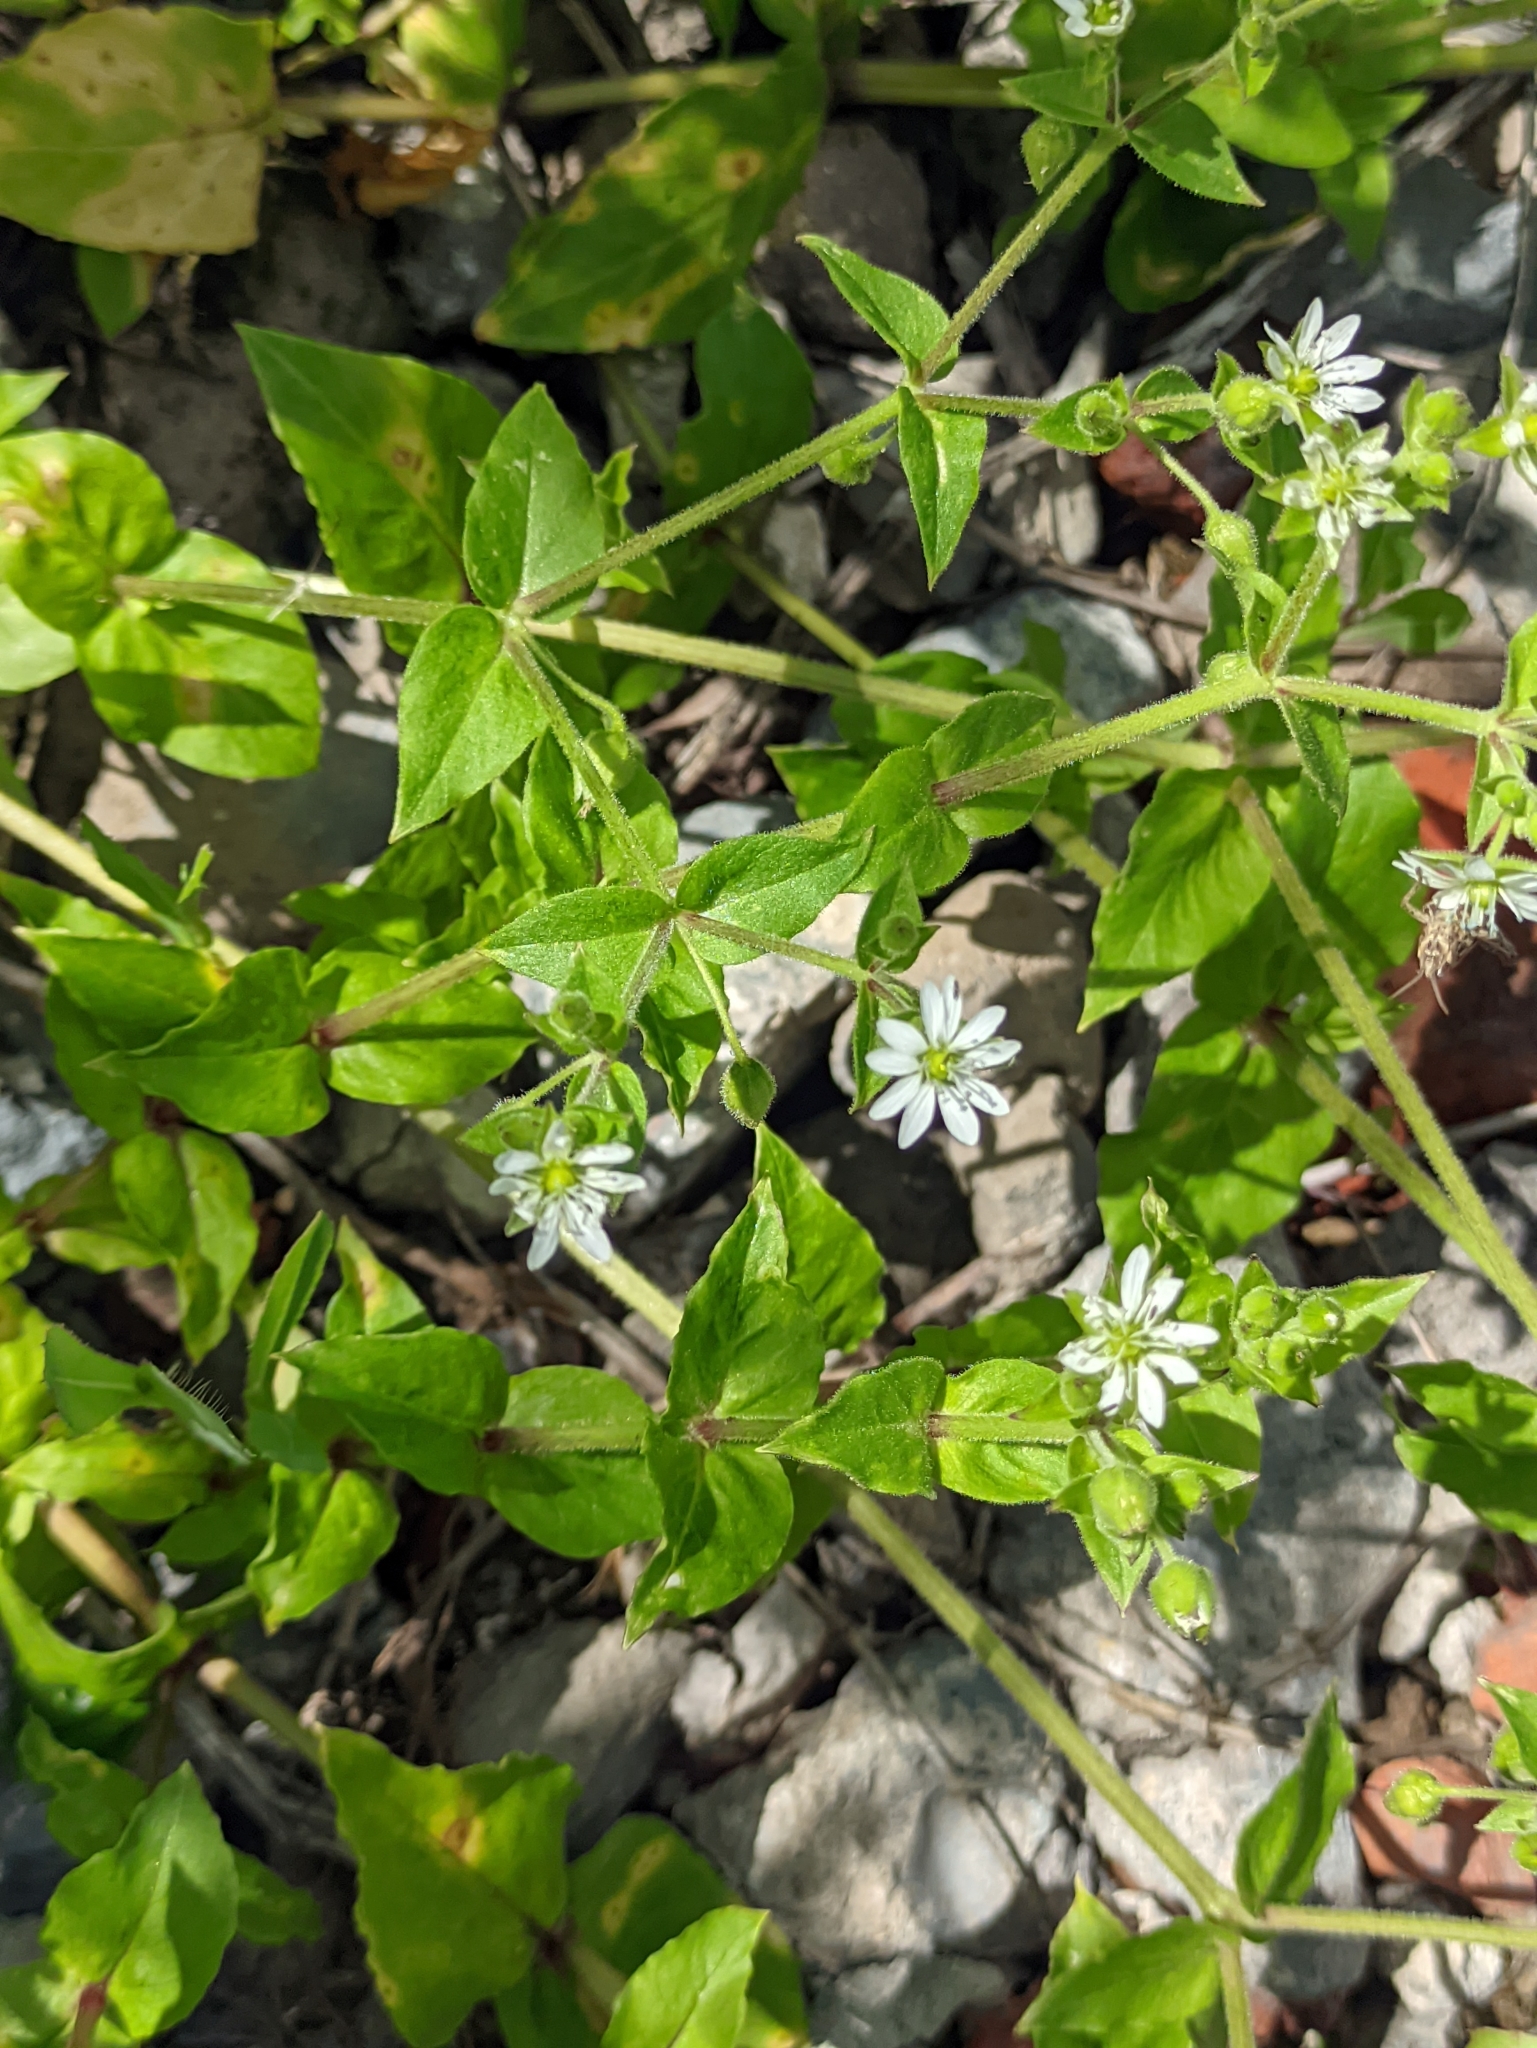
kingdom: Plantae
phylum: Tracheophyta
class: Magnoliopsida
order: Caryophyllales
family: Caryophyllaceae
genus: Stellaria
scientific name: Stellaria aquatica
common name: Water chickweed
